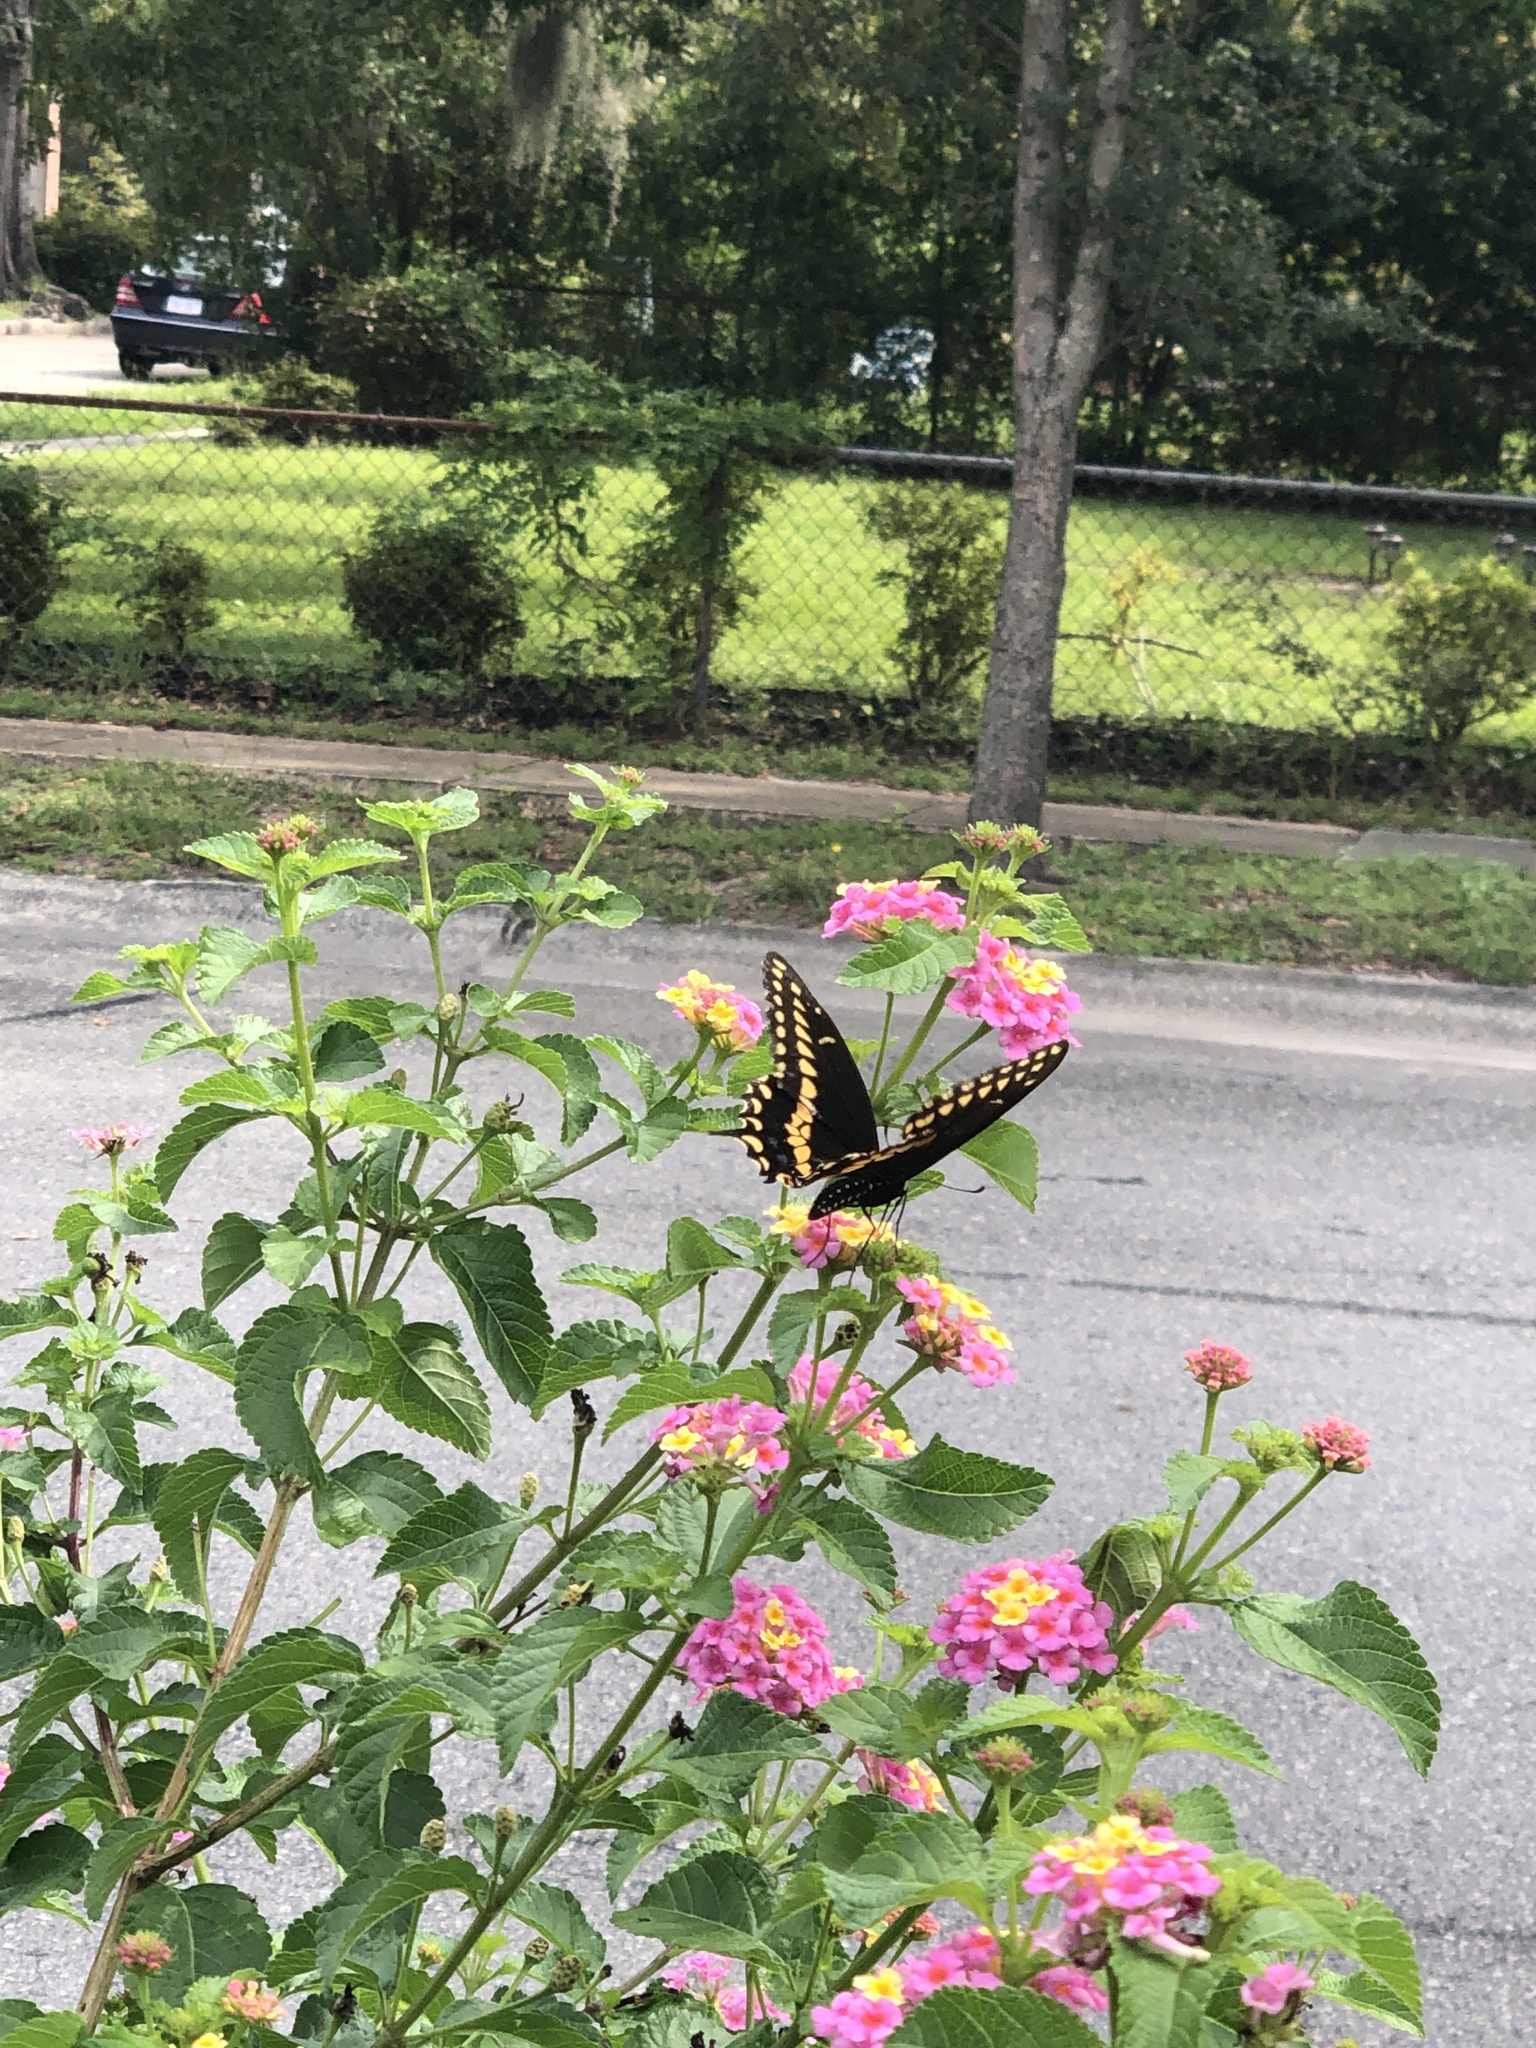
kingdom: Animalia
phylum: Arthropoda
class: Insecta
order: Lepidoptera
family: Papilionidae
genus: Papilio
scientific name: Papilio polyxenes
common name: Black swallowtail
